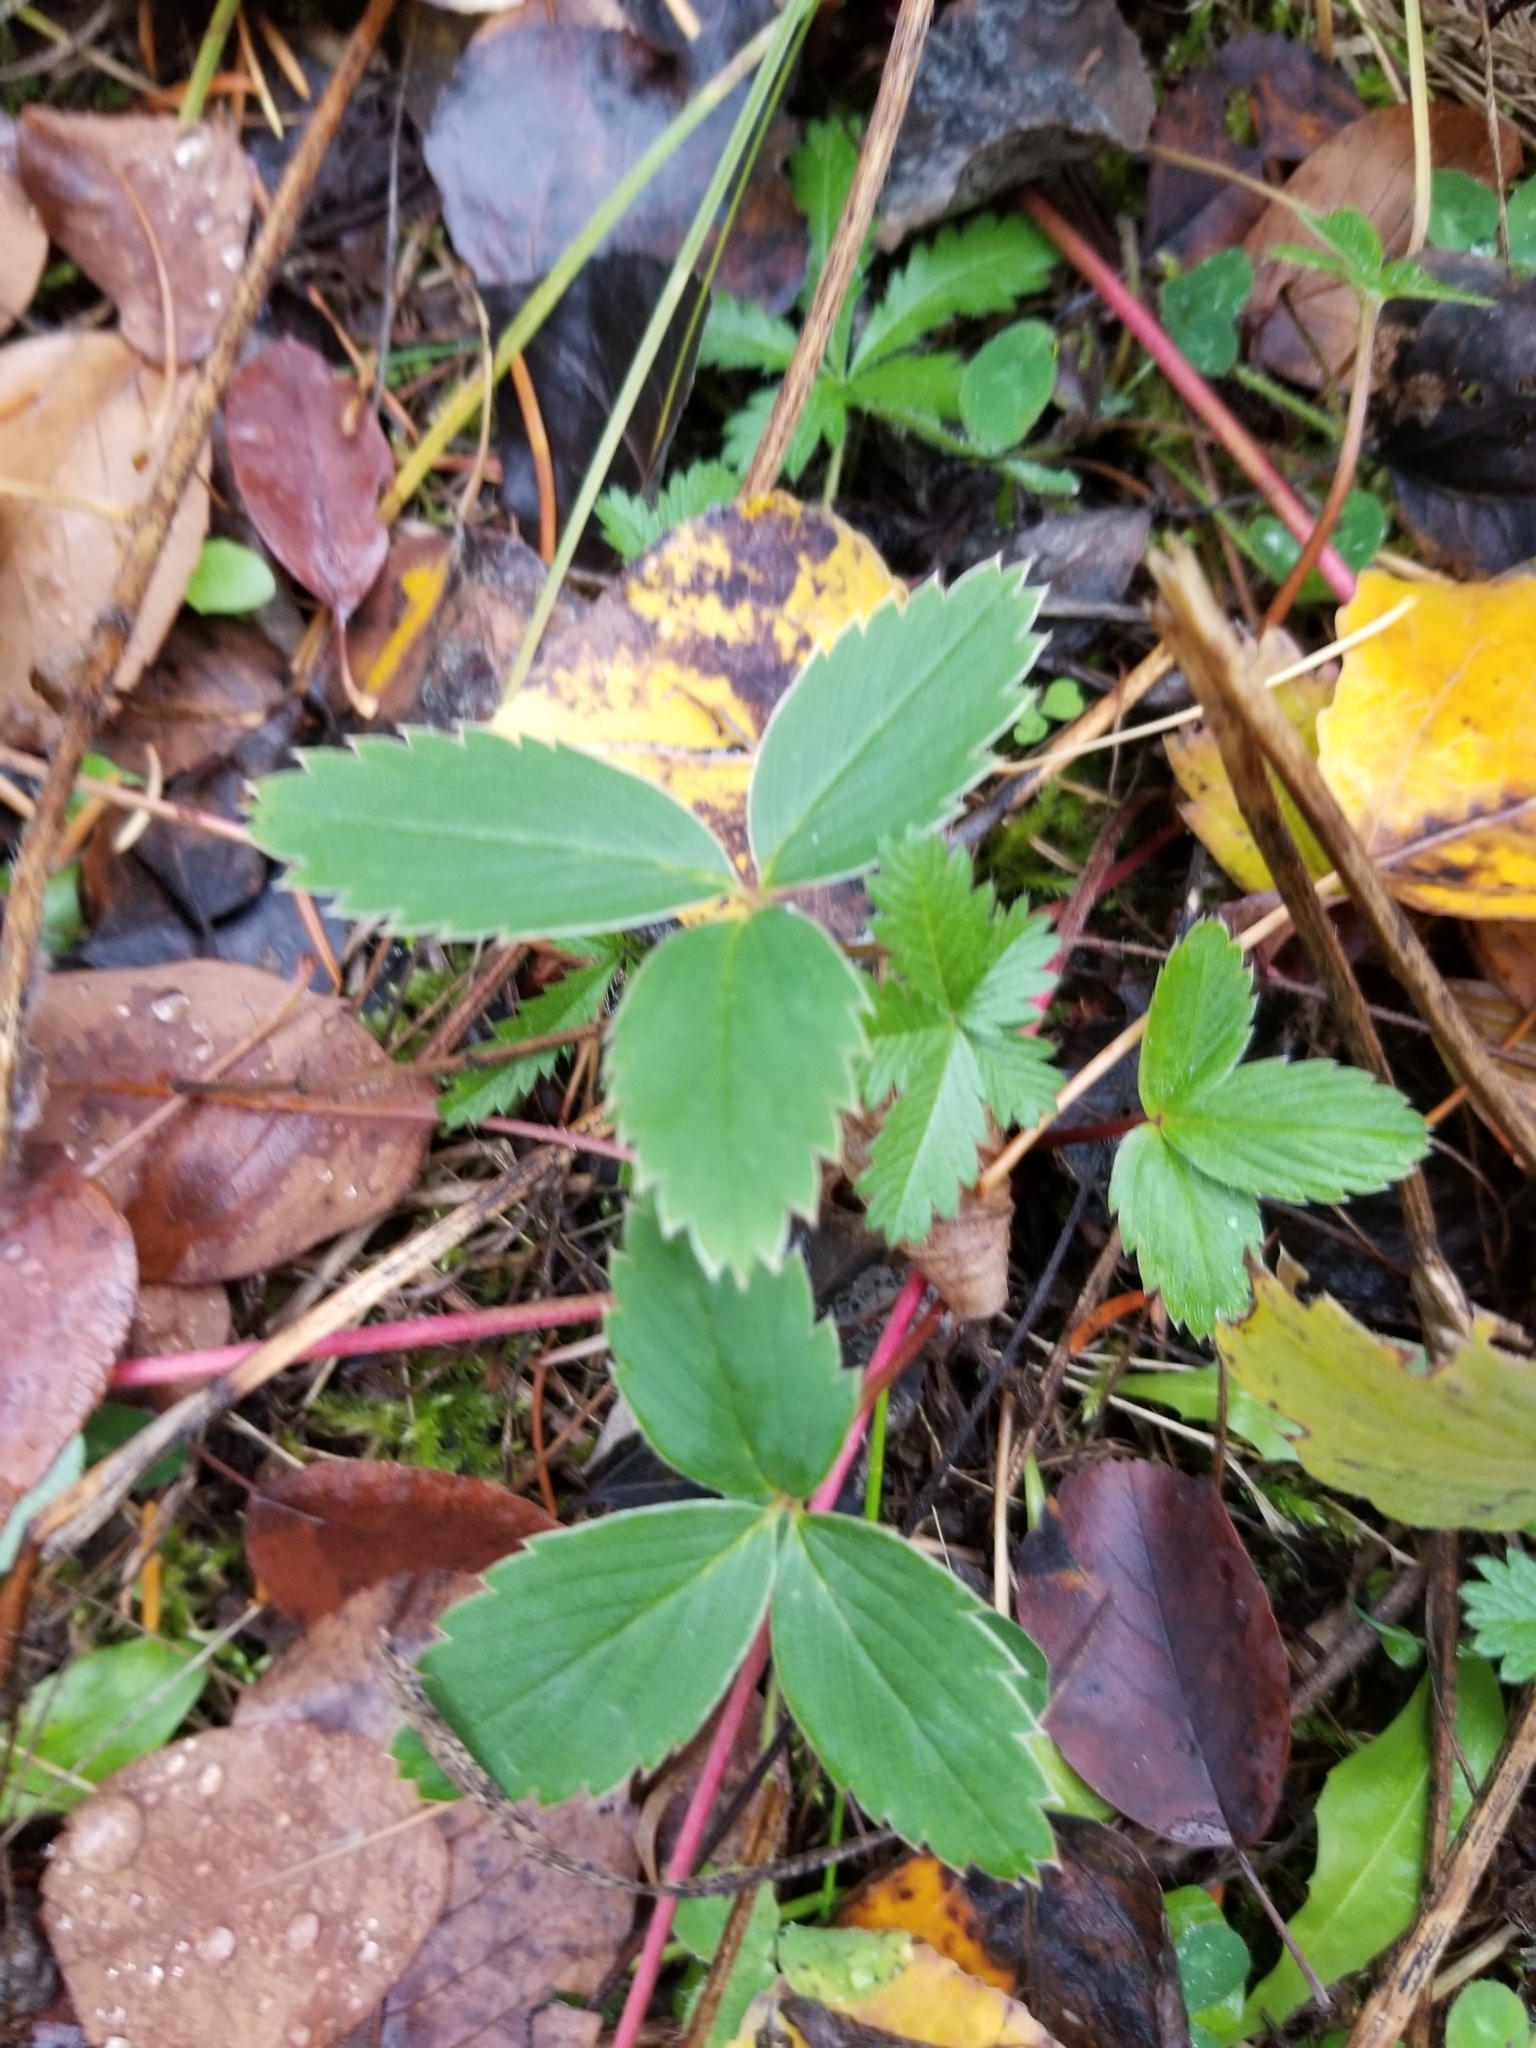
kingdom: Plantae
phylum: Tracheophyta
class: Magnoliopsida
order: Rosales
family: Rosaceae
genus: Fragaria
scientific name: Fragaria virginiana
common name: Thickleaved wild strawberry
